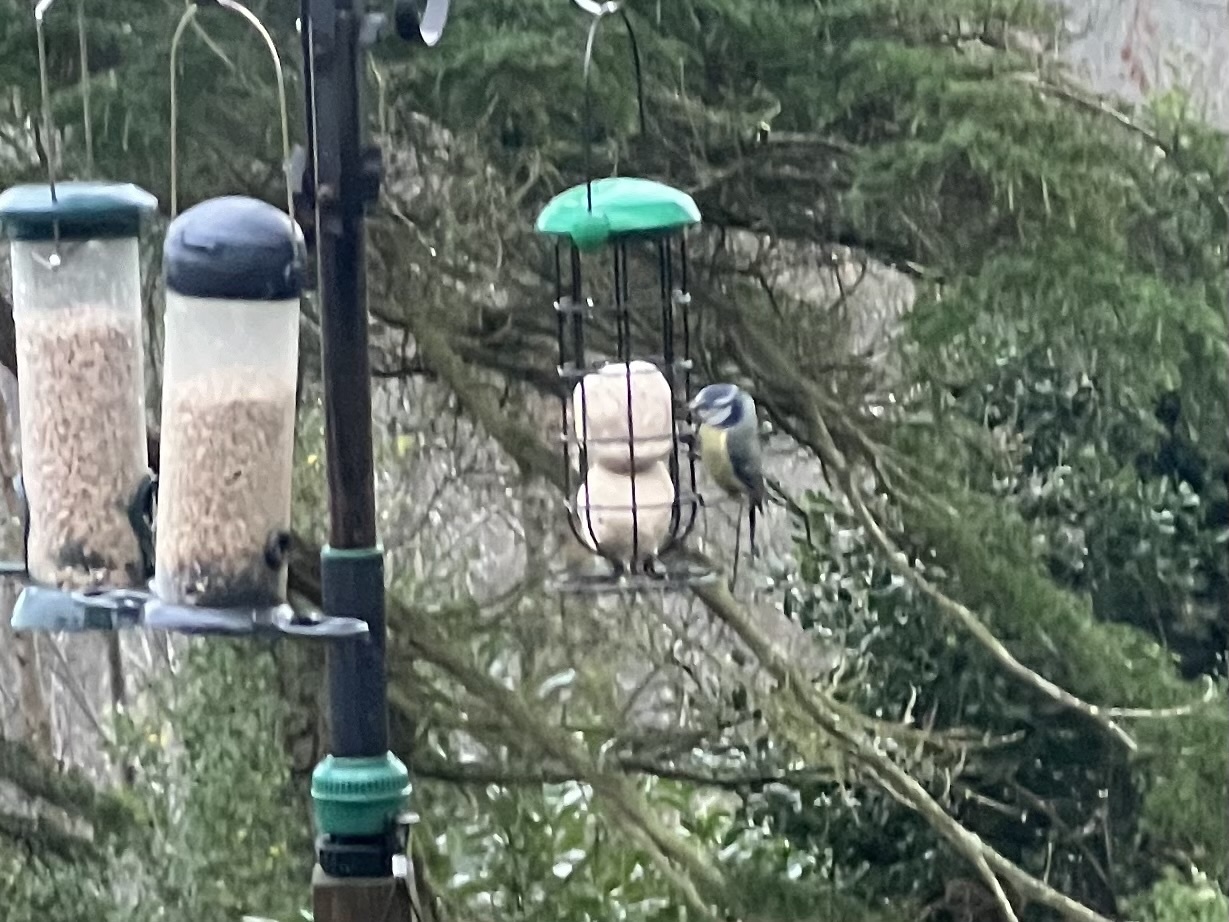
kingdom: Animalia
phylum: Chordata
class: Aves
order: Passeriformes
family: Paridae
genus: Cyanistes
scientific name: Cyanistes caeruleus
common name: Eurasian blue tit
